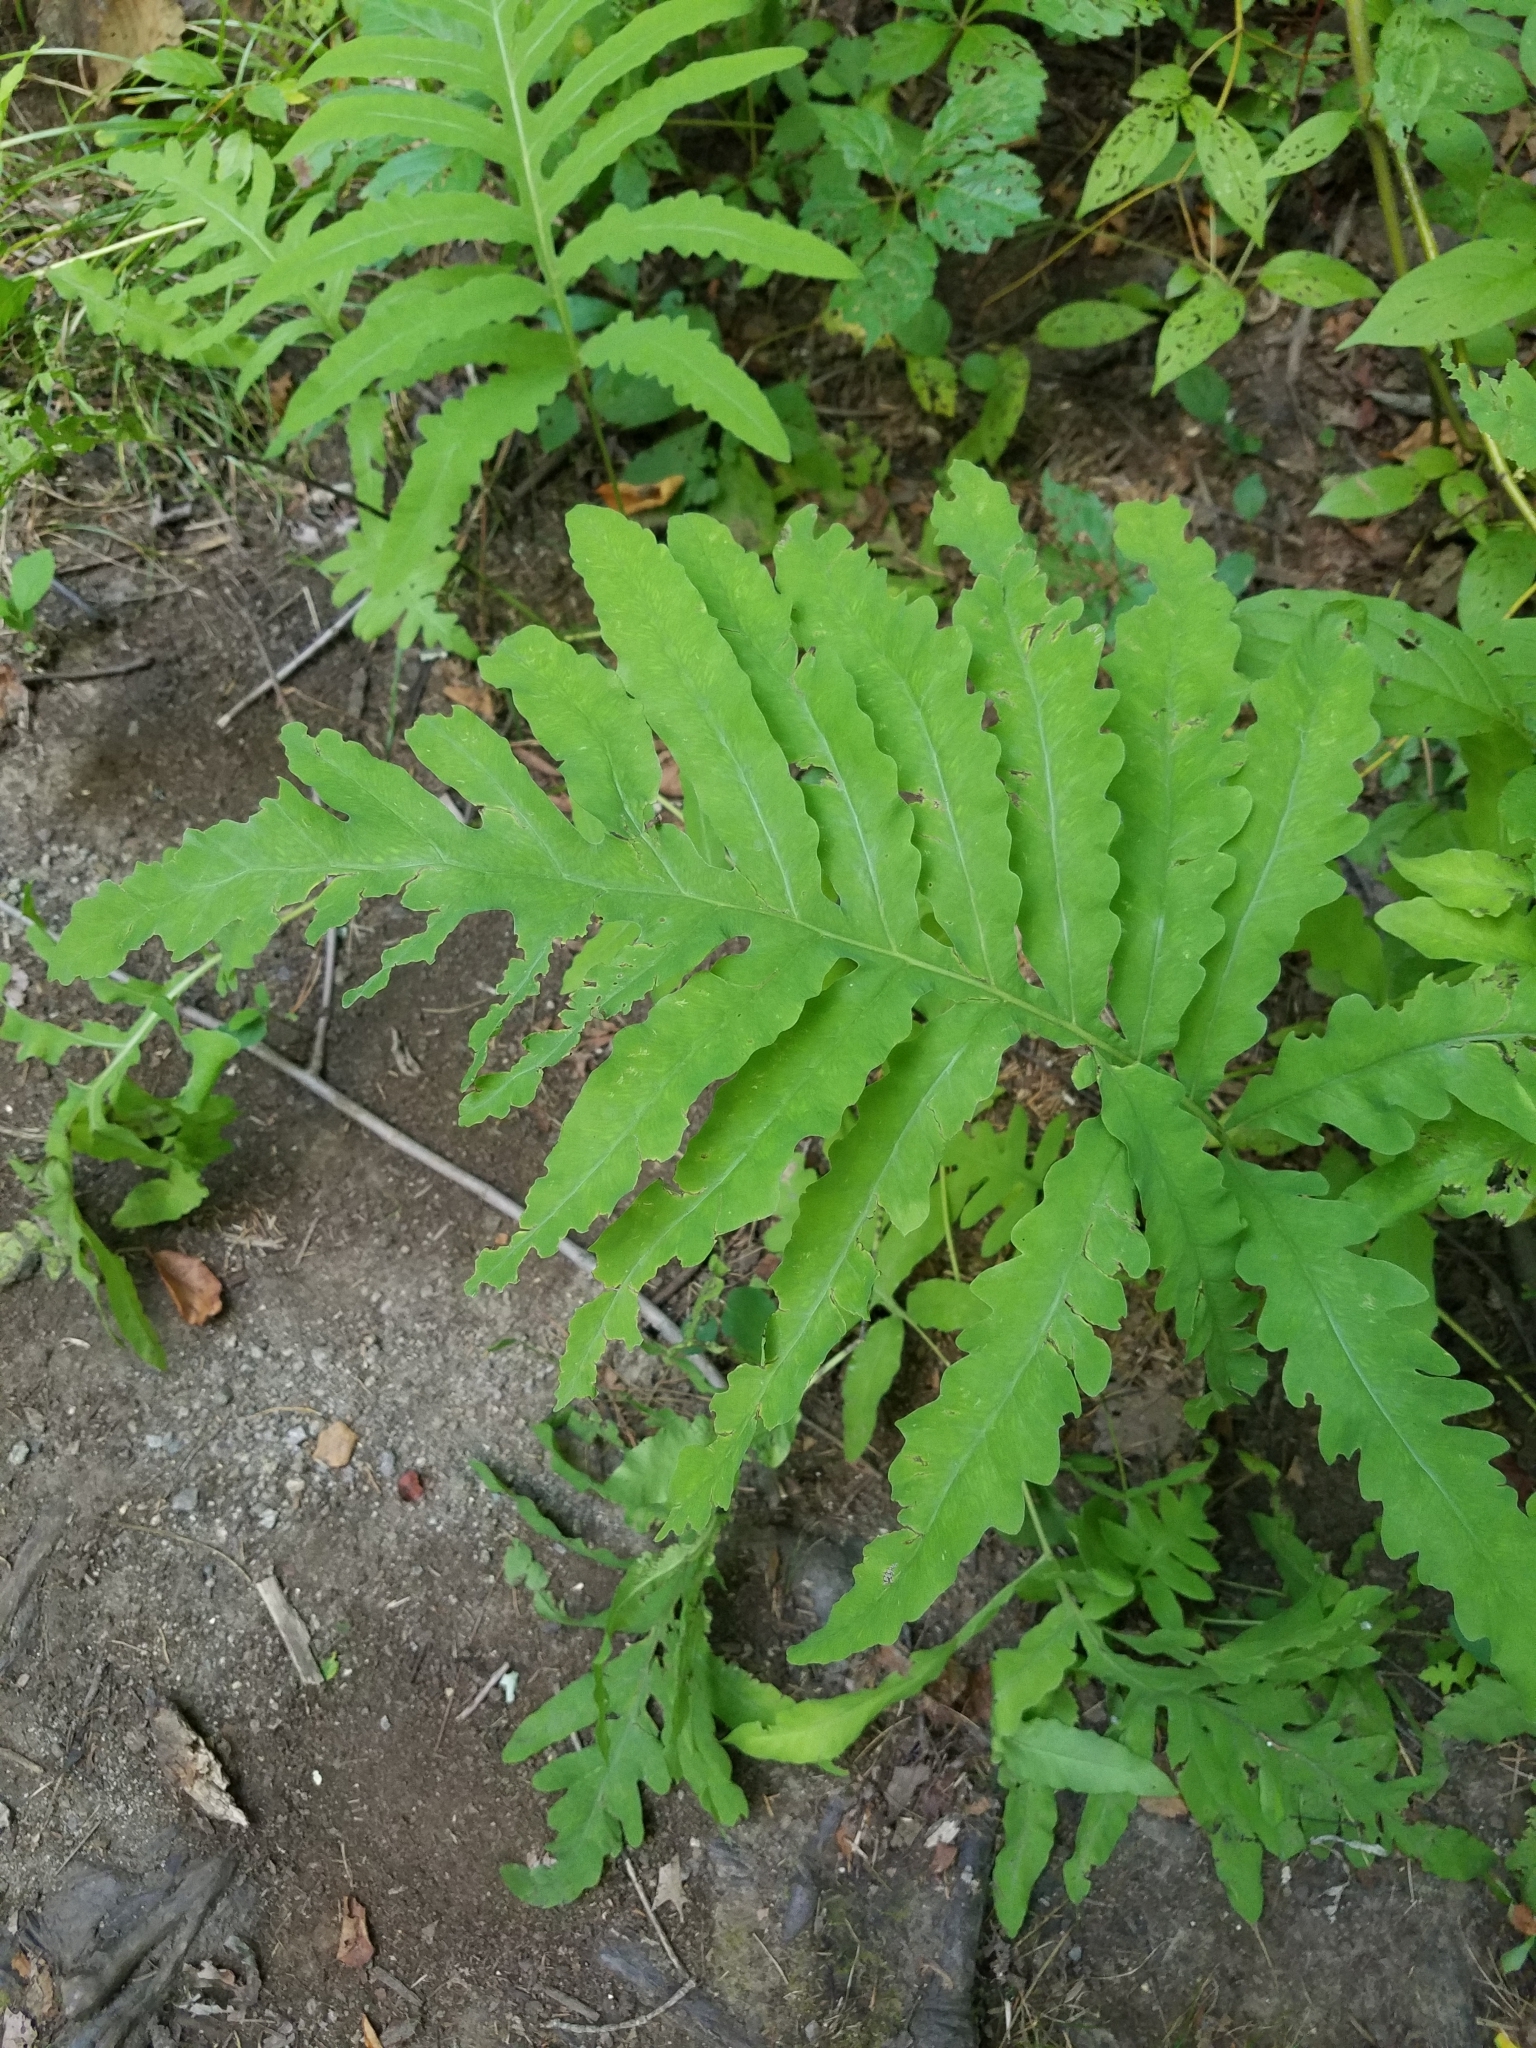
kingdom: Plantae
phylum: Tracheophyta
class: Polypodiopsida
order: Polypodiales
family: Onocleaceae
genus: Onoclea
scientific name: Onoclea sensibilis
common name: Sensitive fern
